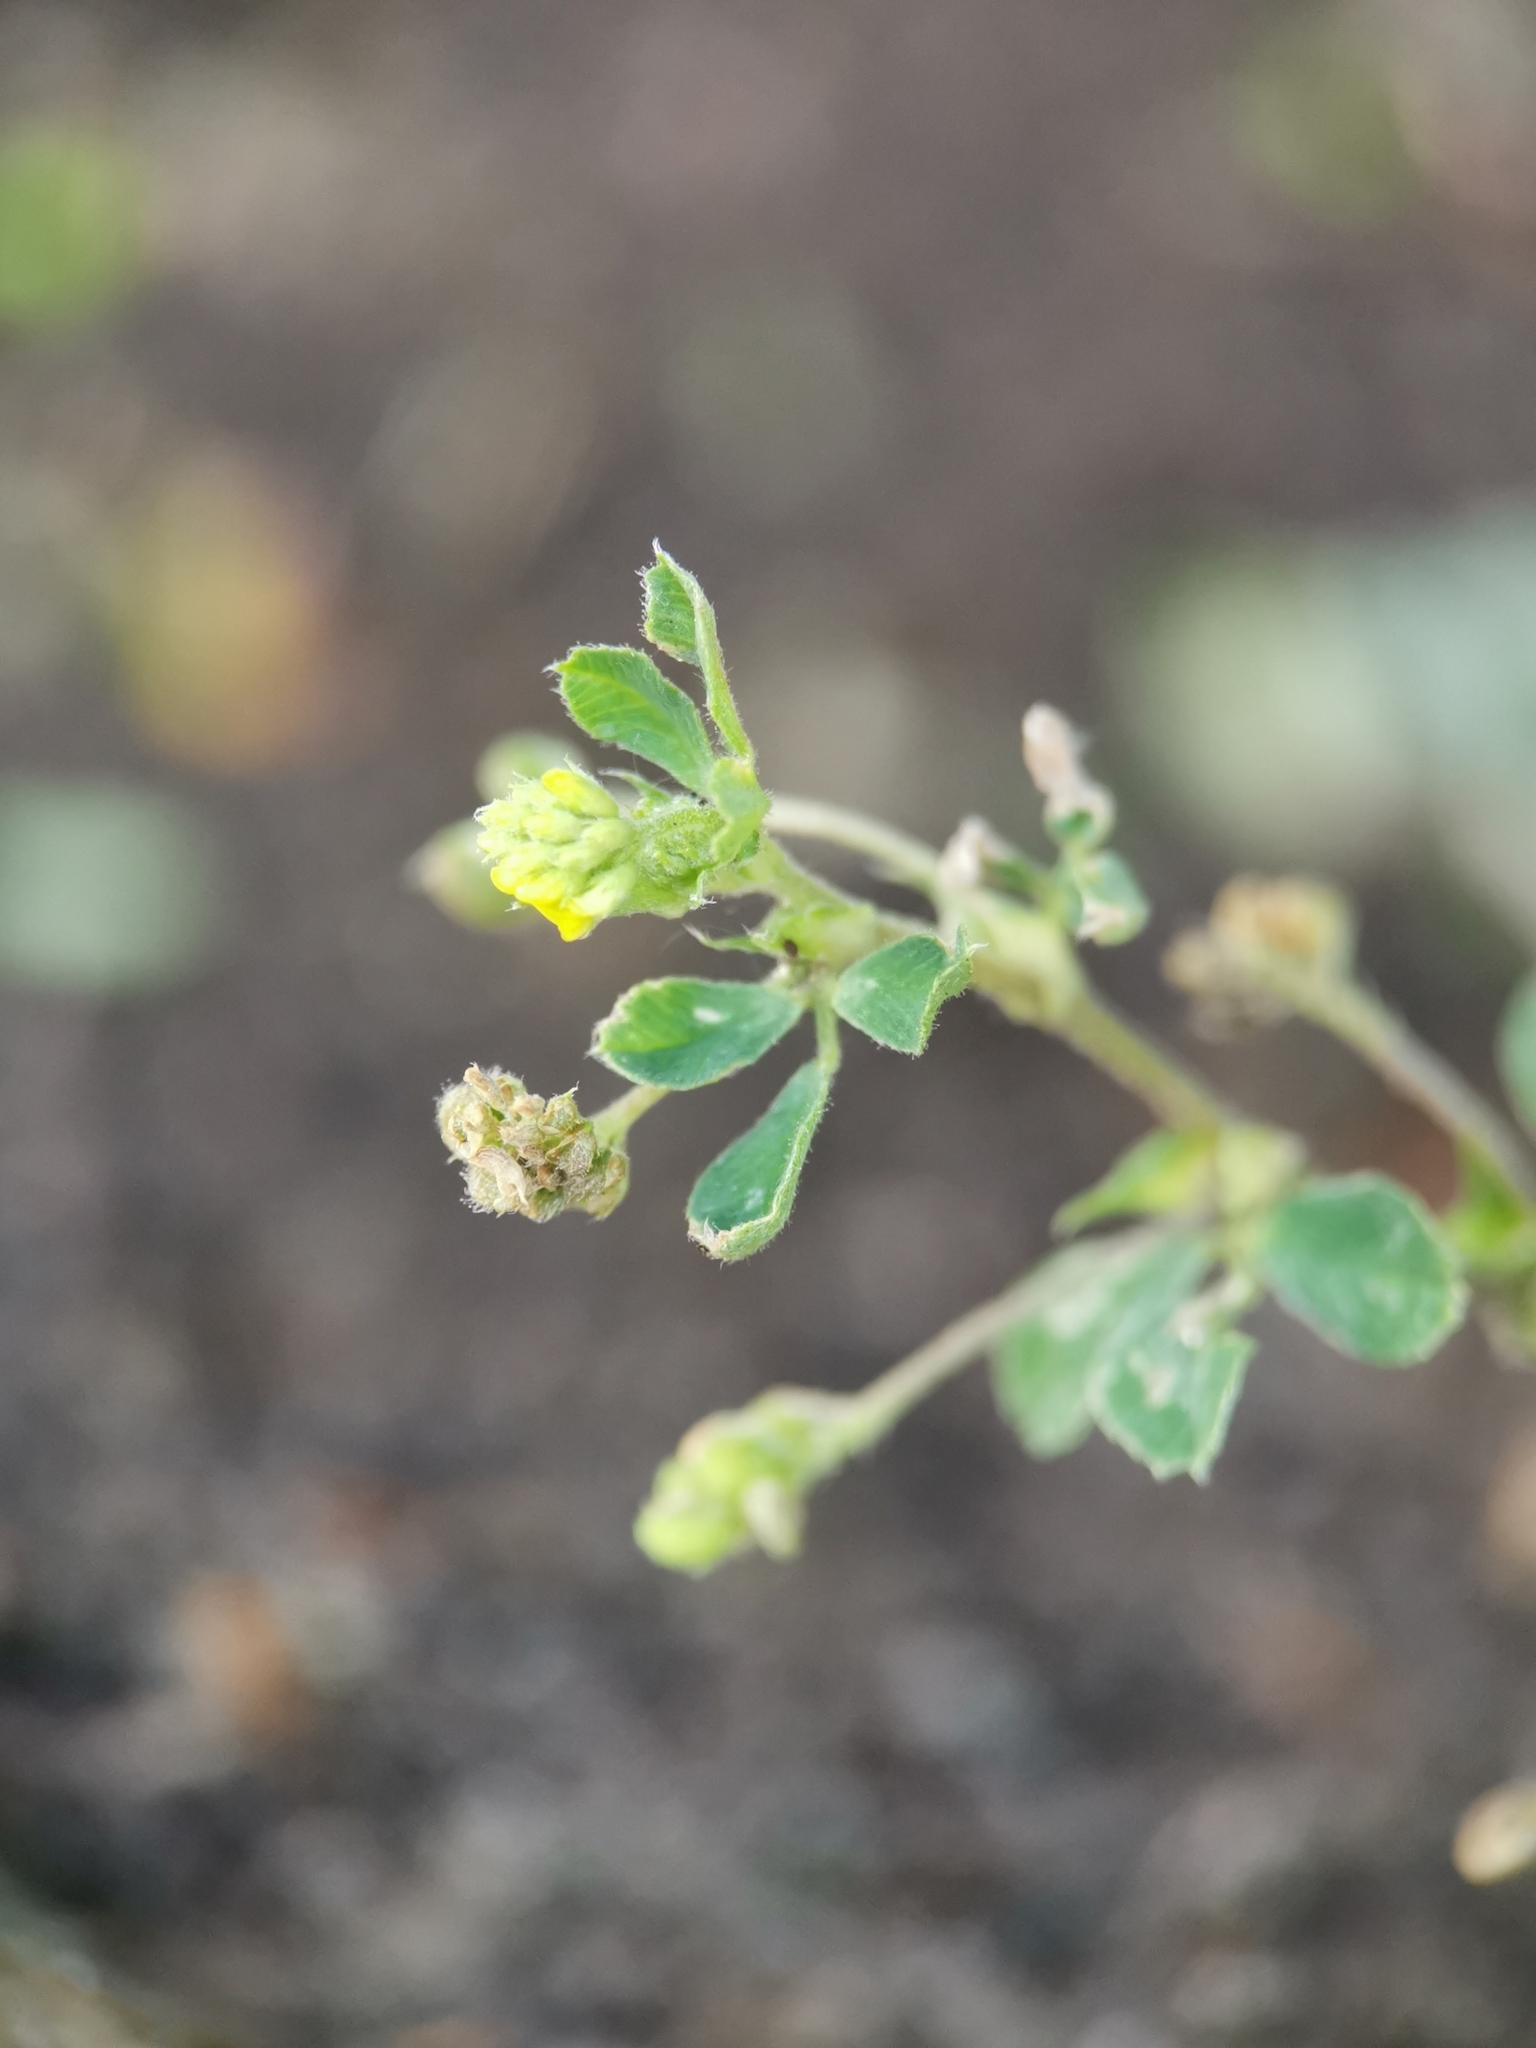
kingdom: Plantae
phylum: Tracheophyta
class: Magnoliopsida
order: Fabales
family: Fabaceae
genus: Medicago
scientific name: Medicago lupulina
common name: Black medick
